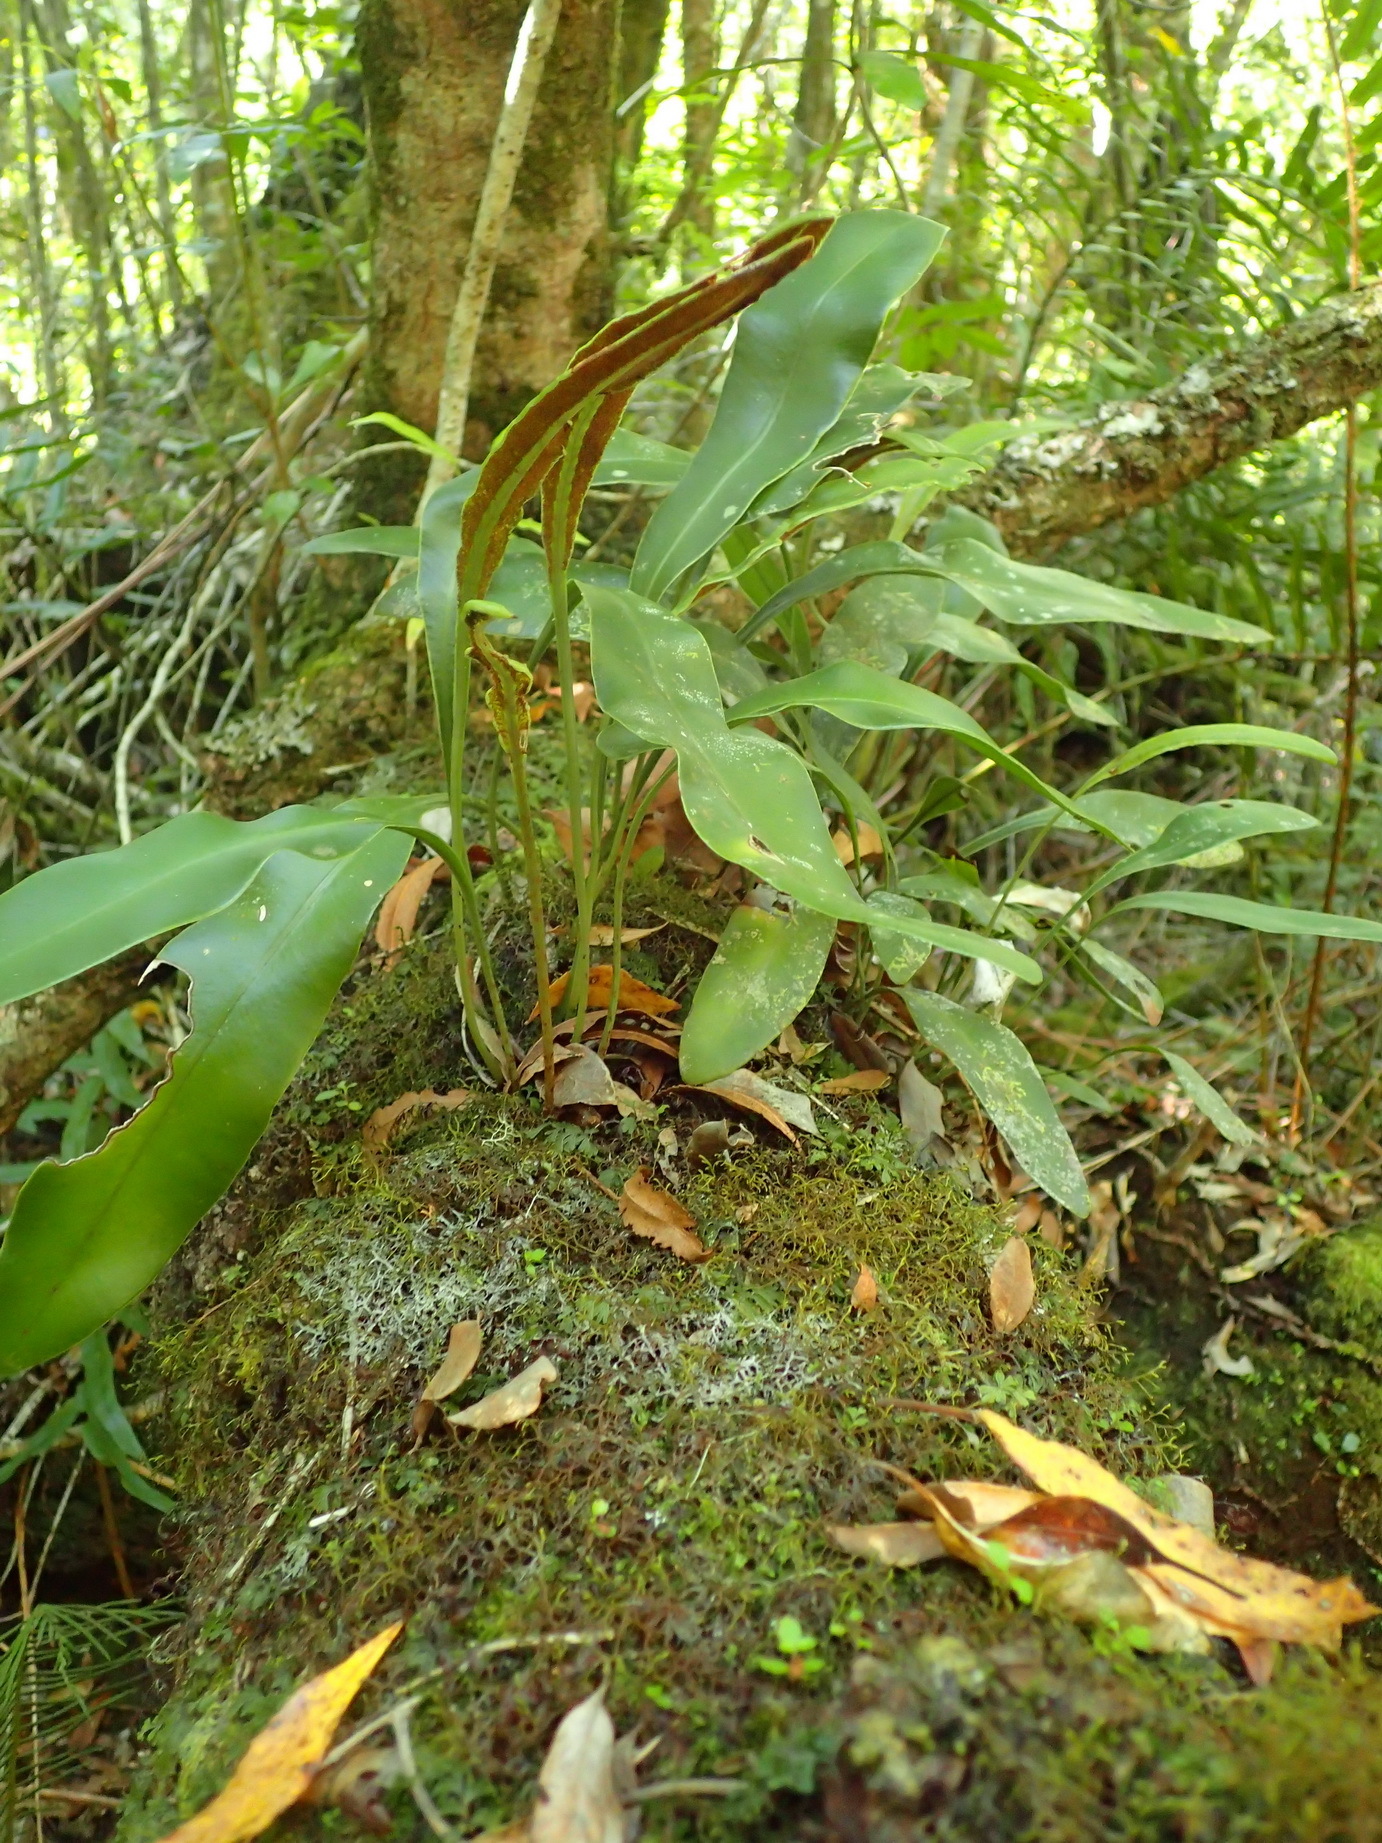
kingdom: Plantae
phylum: Tracheophyta
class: Polypodiopsida
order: Polypodiales
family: Dryopteridaceae
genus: Elaphoglossum
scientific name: Elaphoglossum acrostichoides
